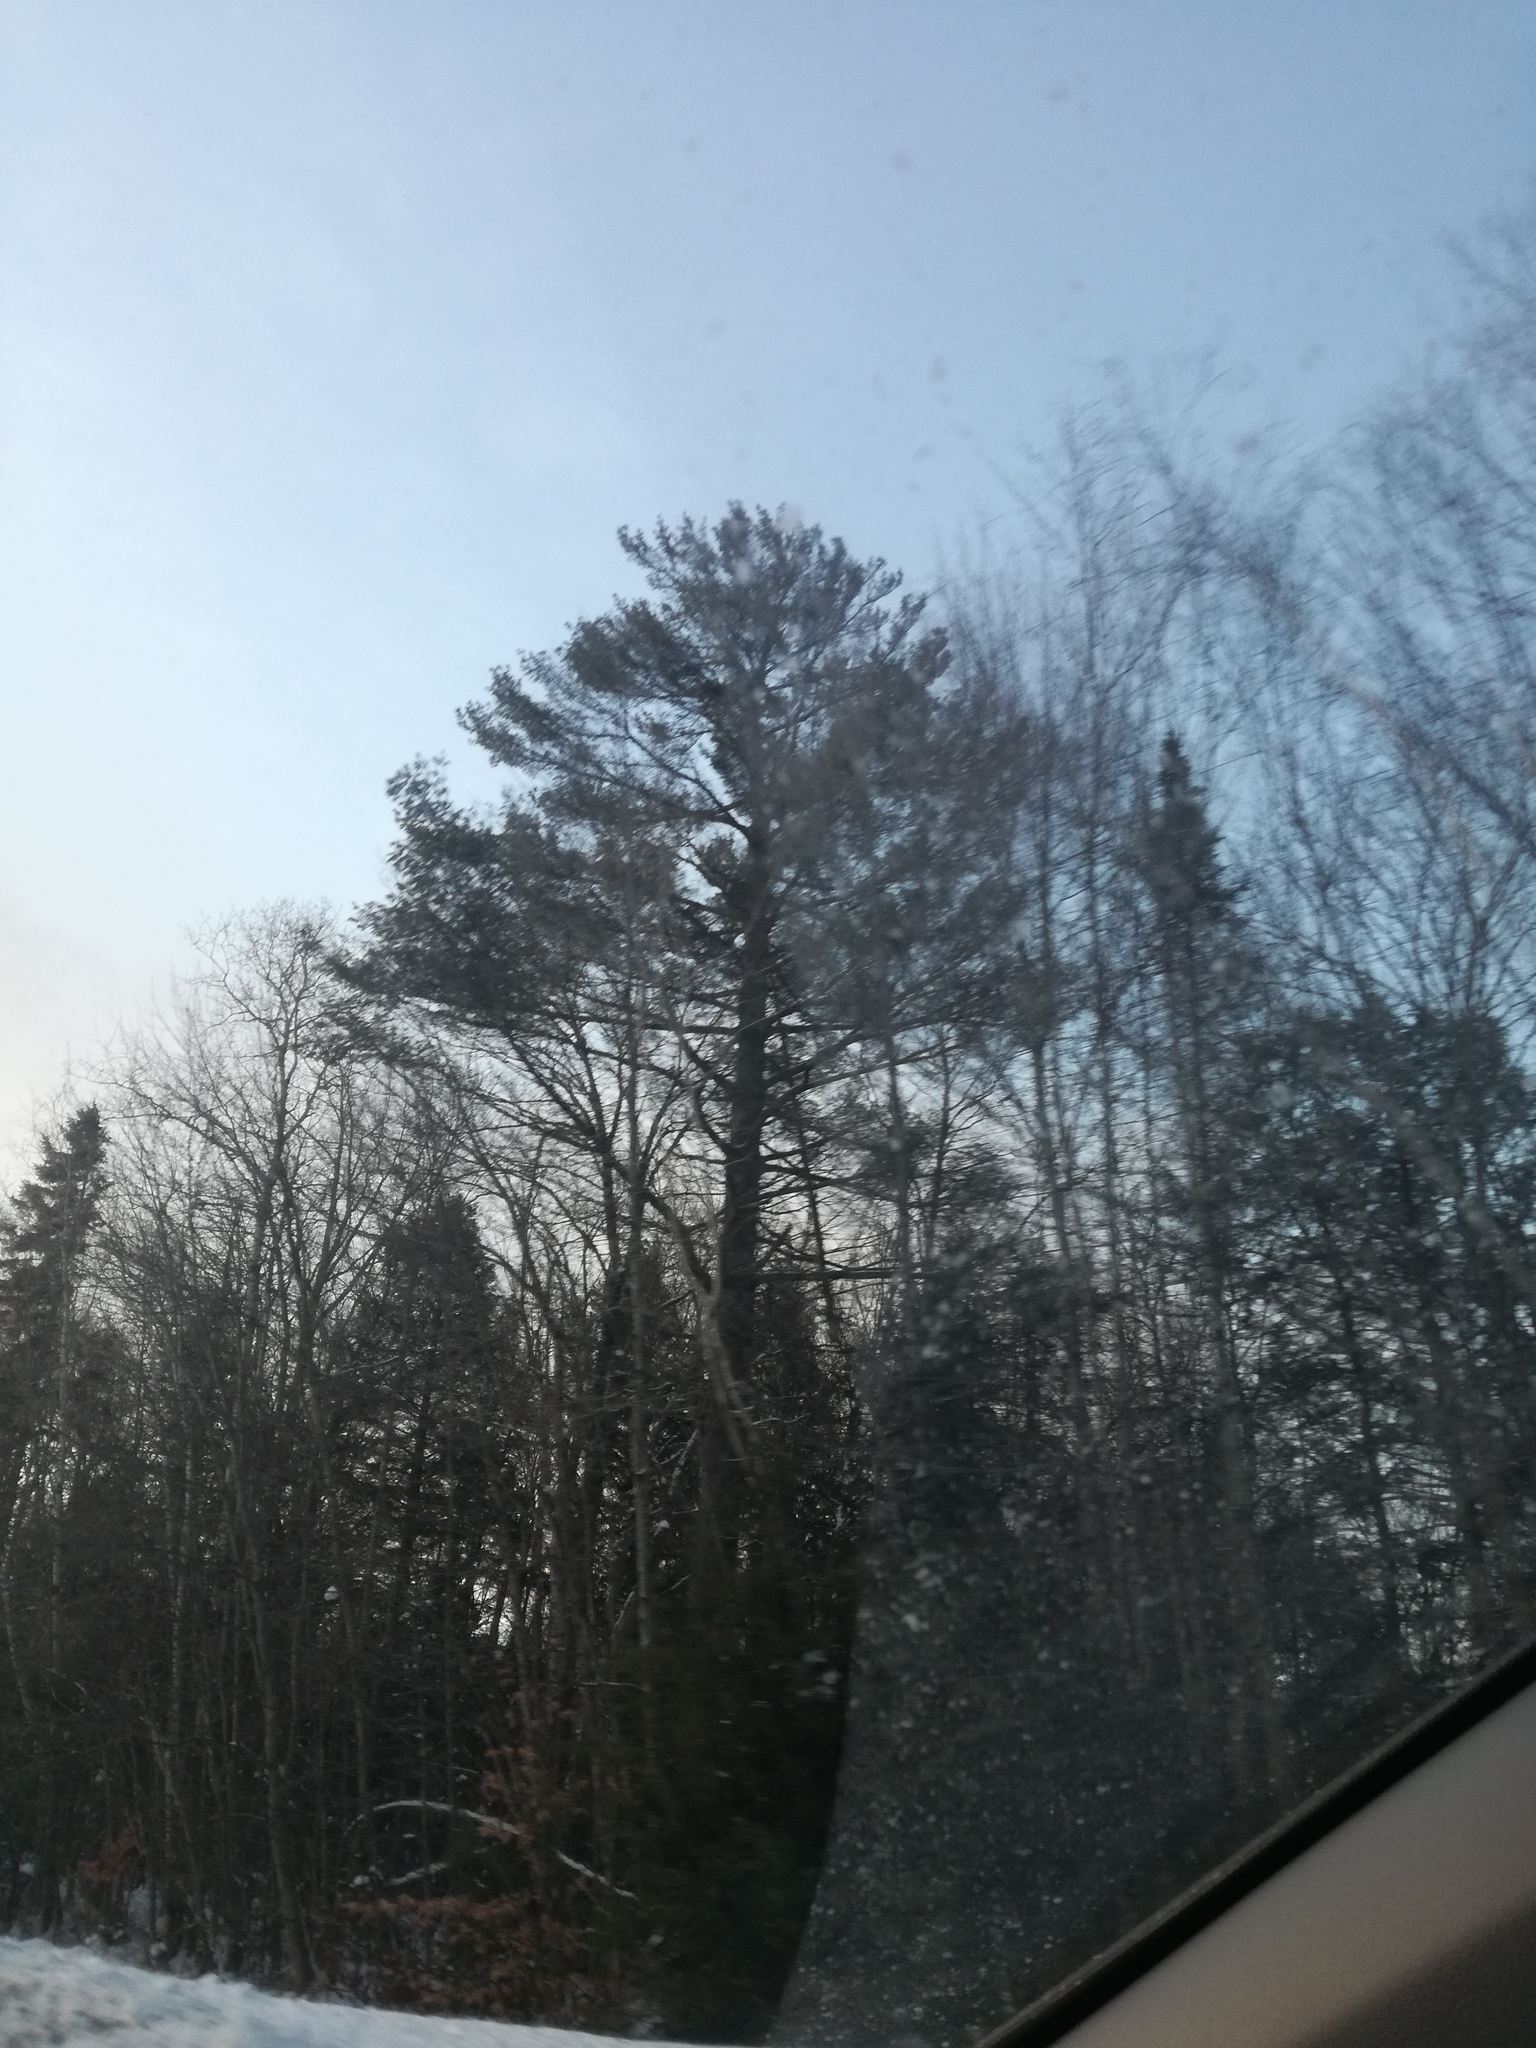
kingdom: Plantae
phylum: Tracheophyta
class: Pinopsida
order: Pinales
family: Pinaceae
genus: Pinus
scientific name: Pinus strobus
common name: Weymouth pine
